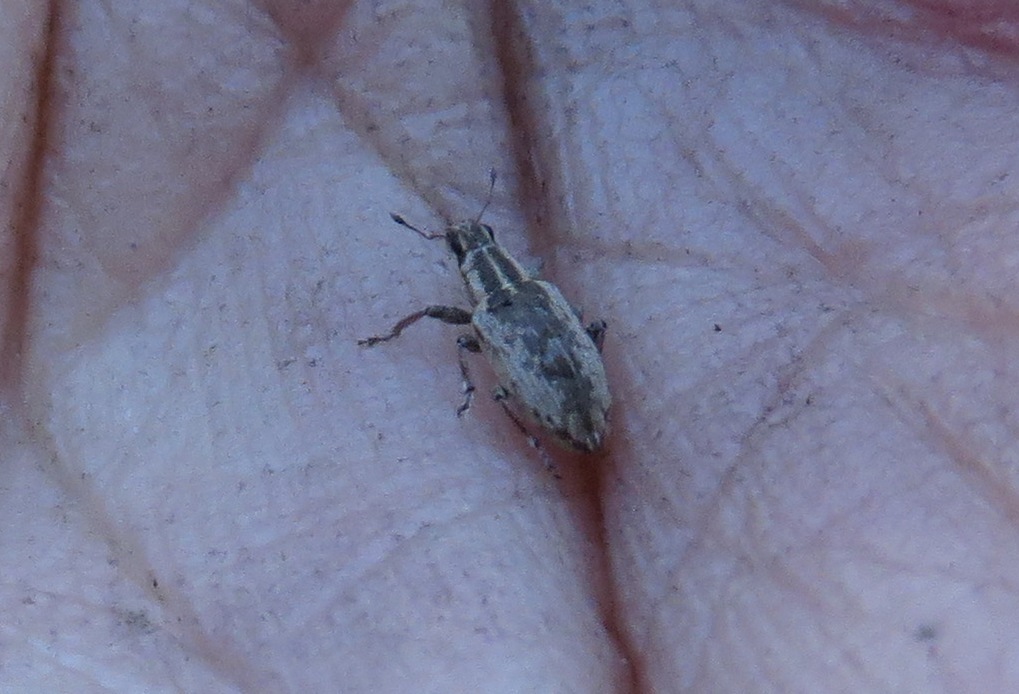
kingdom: Animalia
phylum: Arthropoda
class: Insecta
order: Coleoptera
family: Curculionidae
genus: Sitona
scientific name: Sitona discoideus
